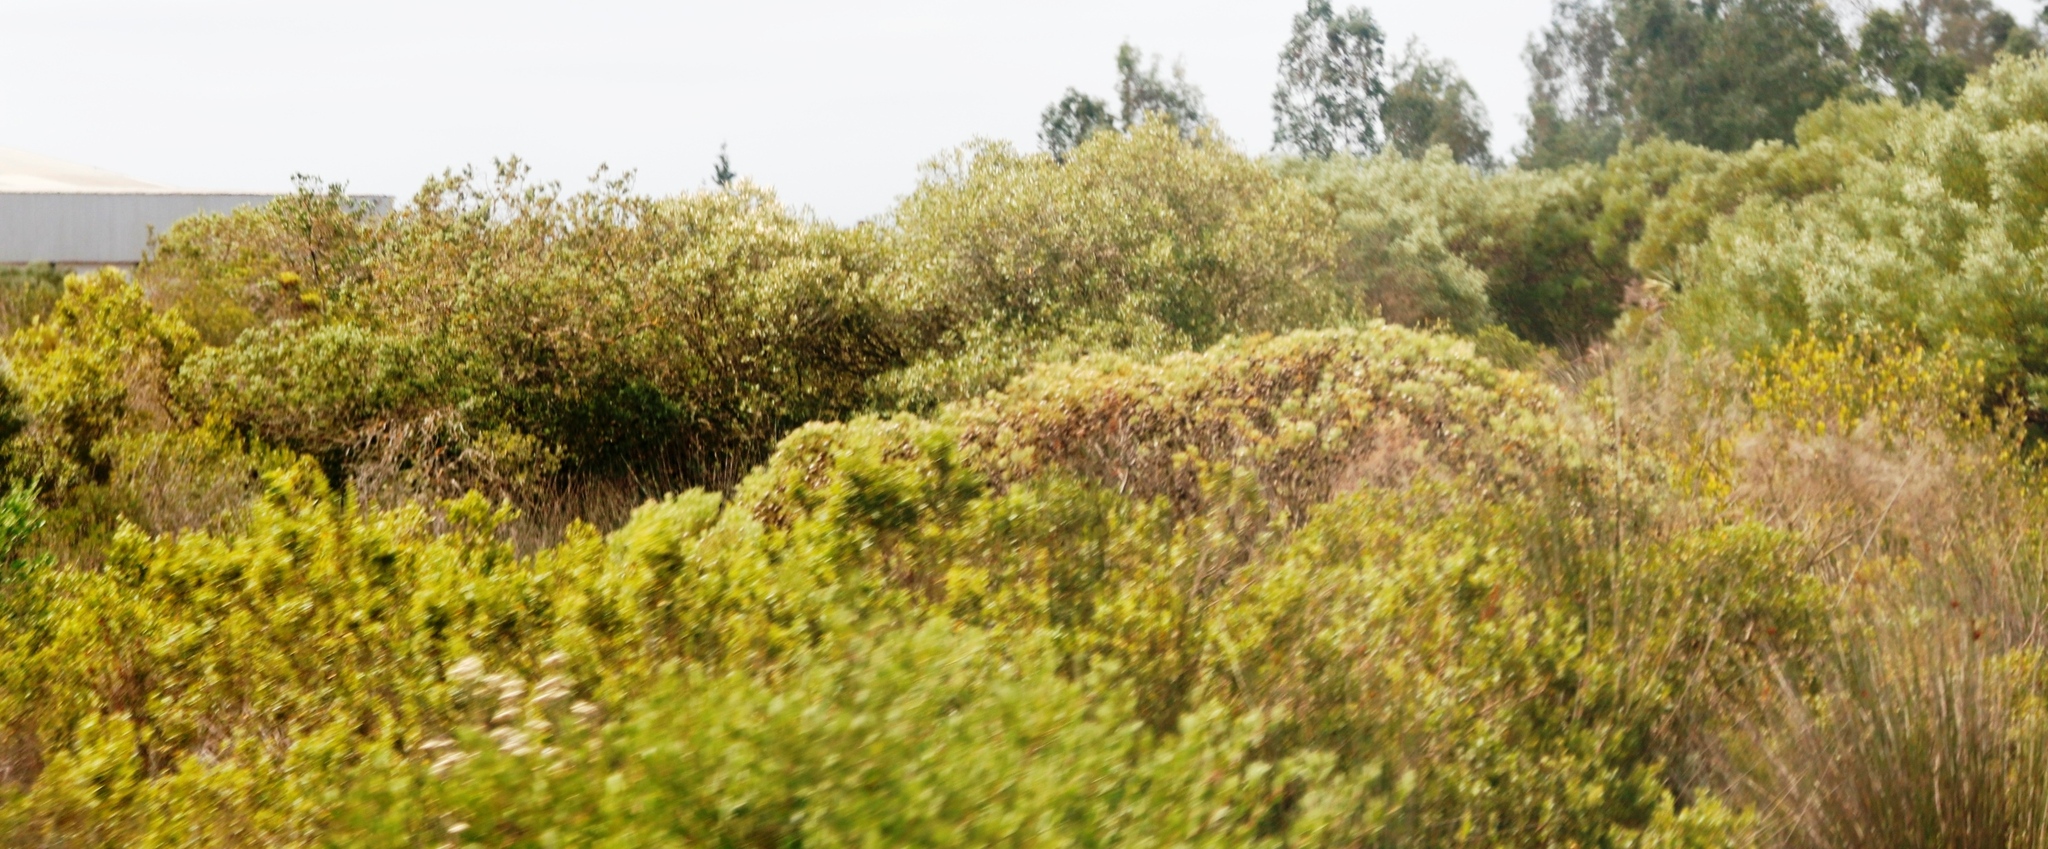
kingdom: Plantae
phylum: Tracheophyta
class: Magnoliopsida
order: Proteales
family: Proteaceae
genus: Leucadendron
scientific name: Leucadendron salignum
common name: Common sunshine conebush
